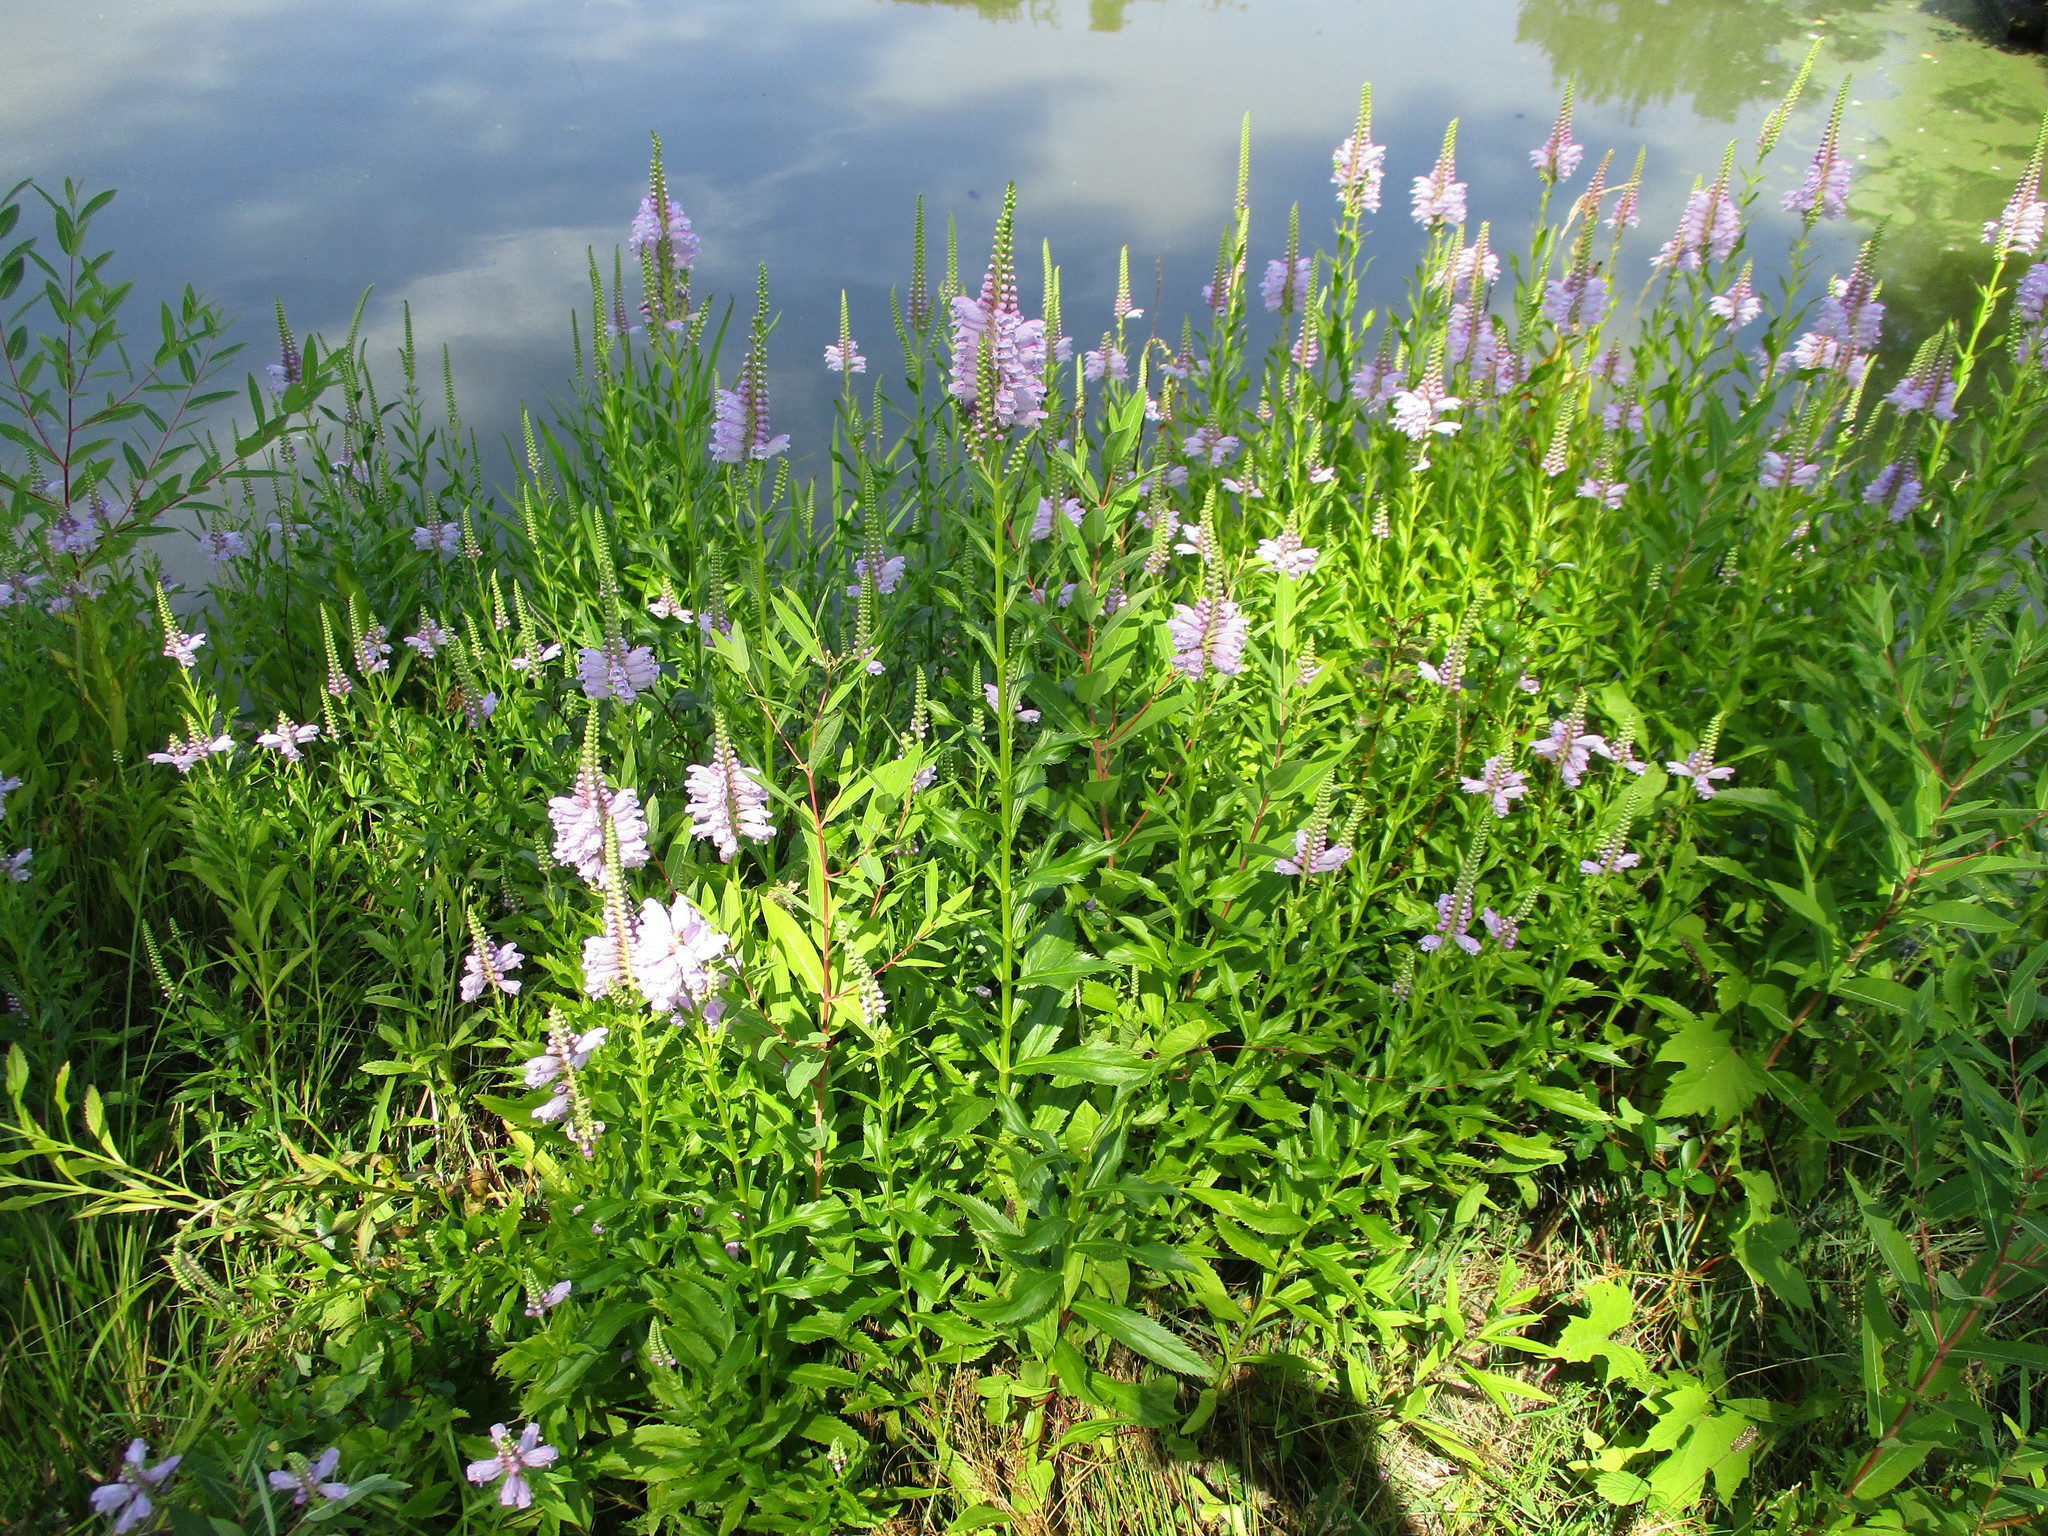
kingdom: Plantae
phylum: Tracheophyta
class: Magnoliopsida
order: Lamiales
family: Lamiaceae
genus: Physostegia
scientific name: Physostegia virginiana
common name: Obedient-plant
